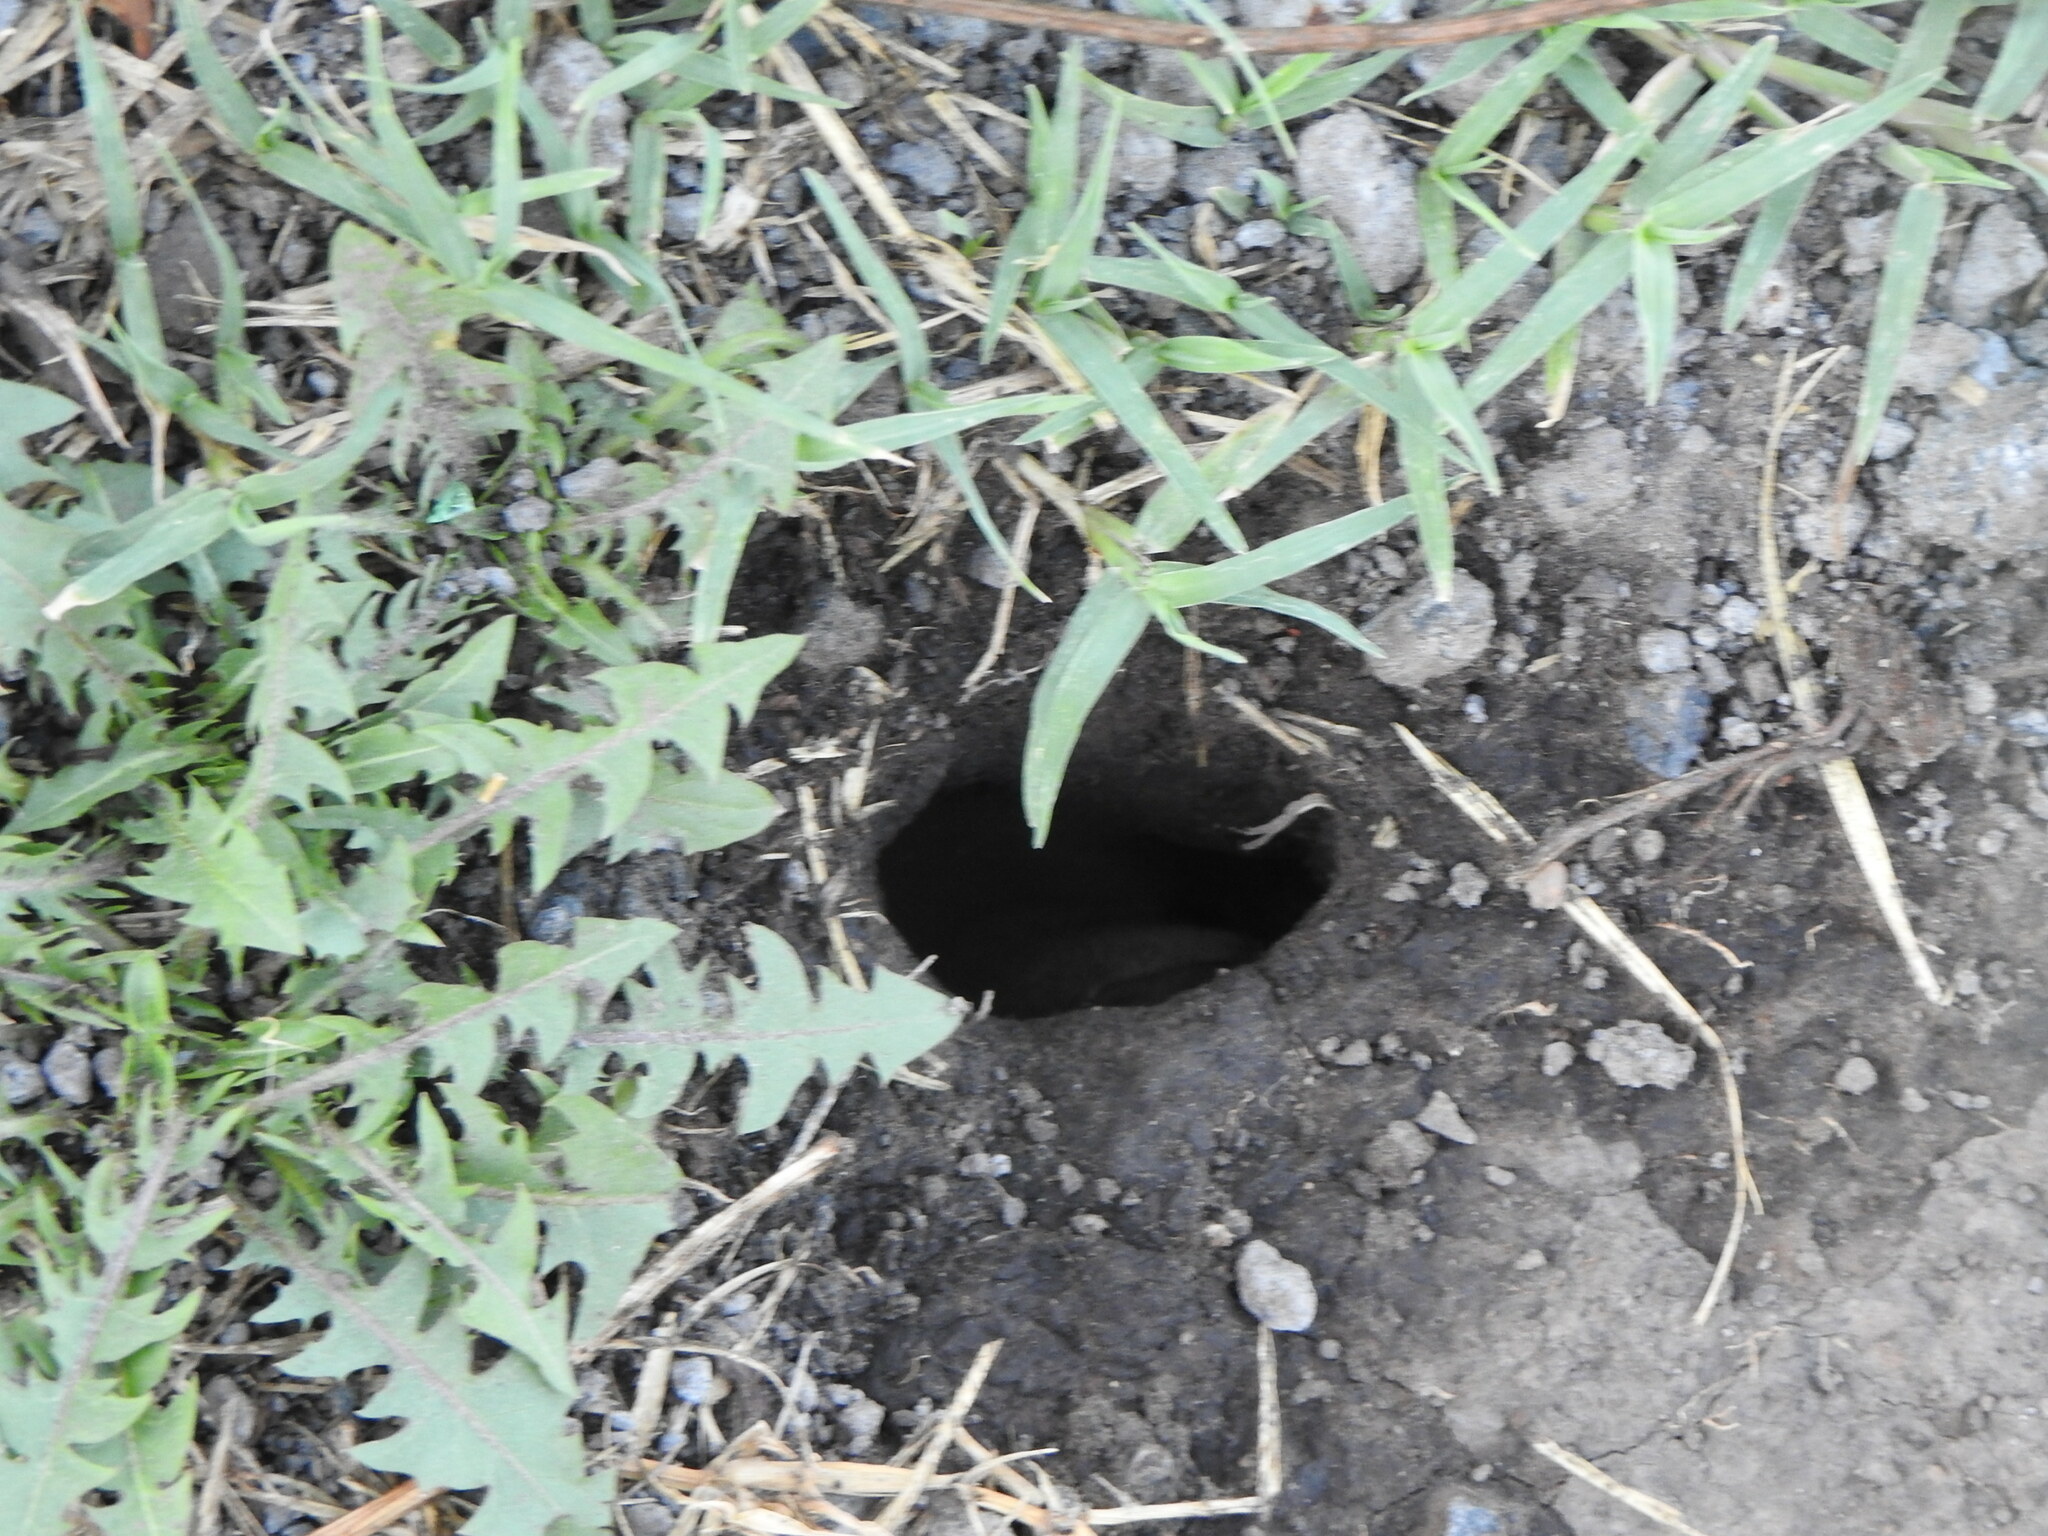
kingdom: Animalia
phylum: Chordata
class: Amphibia
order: Anura
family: Bufonidae
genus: Rhinella
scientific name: Rhinella dorbignyi
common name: D´orbigny’s toad
